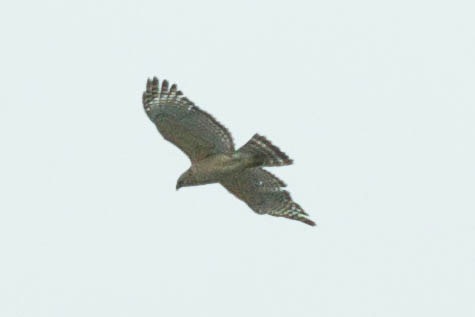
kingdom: Animalia
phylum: Chordata
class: Aves
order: Accipitriformes
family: Accipitridae
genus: Buteo
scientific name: Buteo lineatus
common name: Red-shouldered hawk
